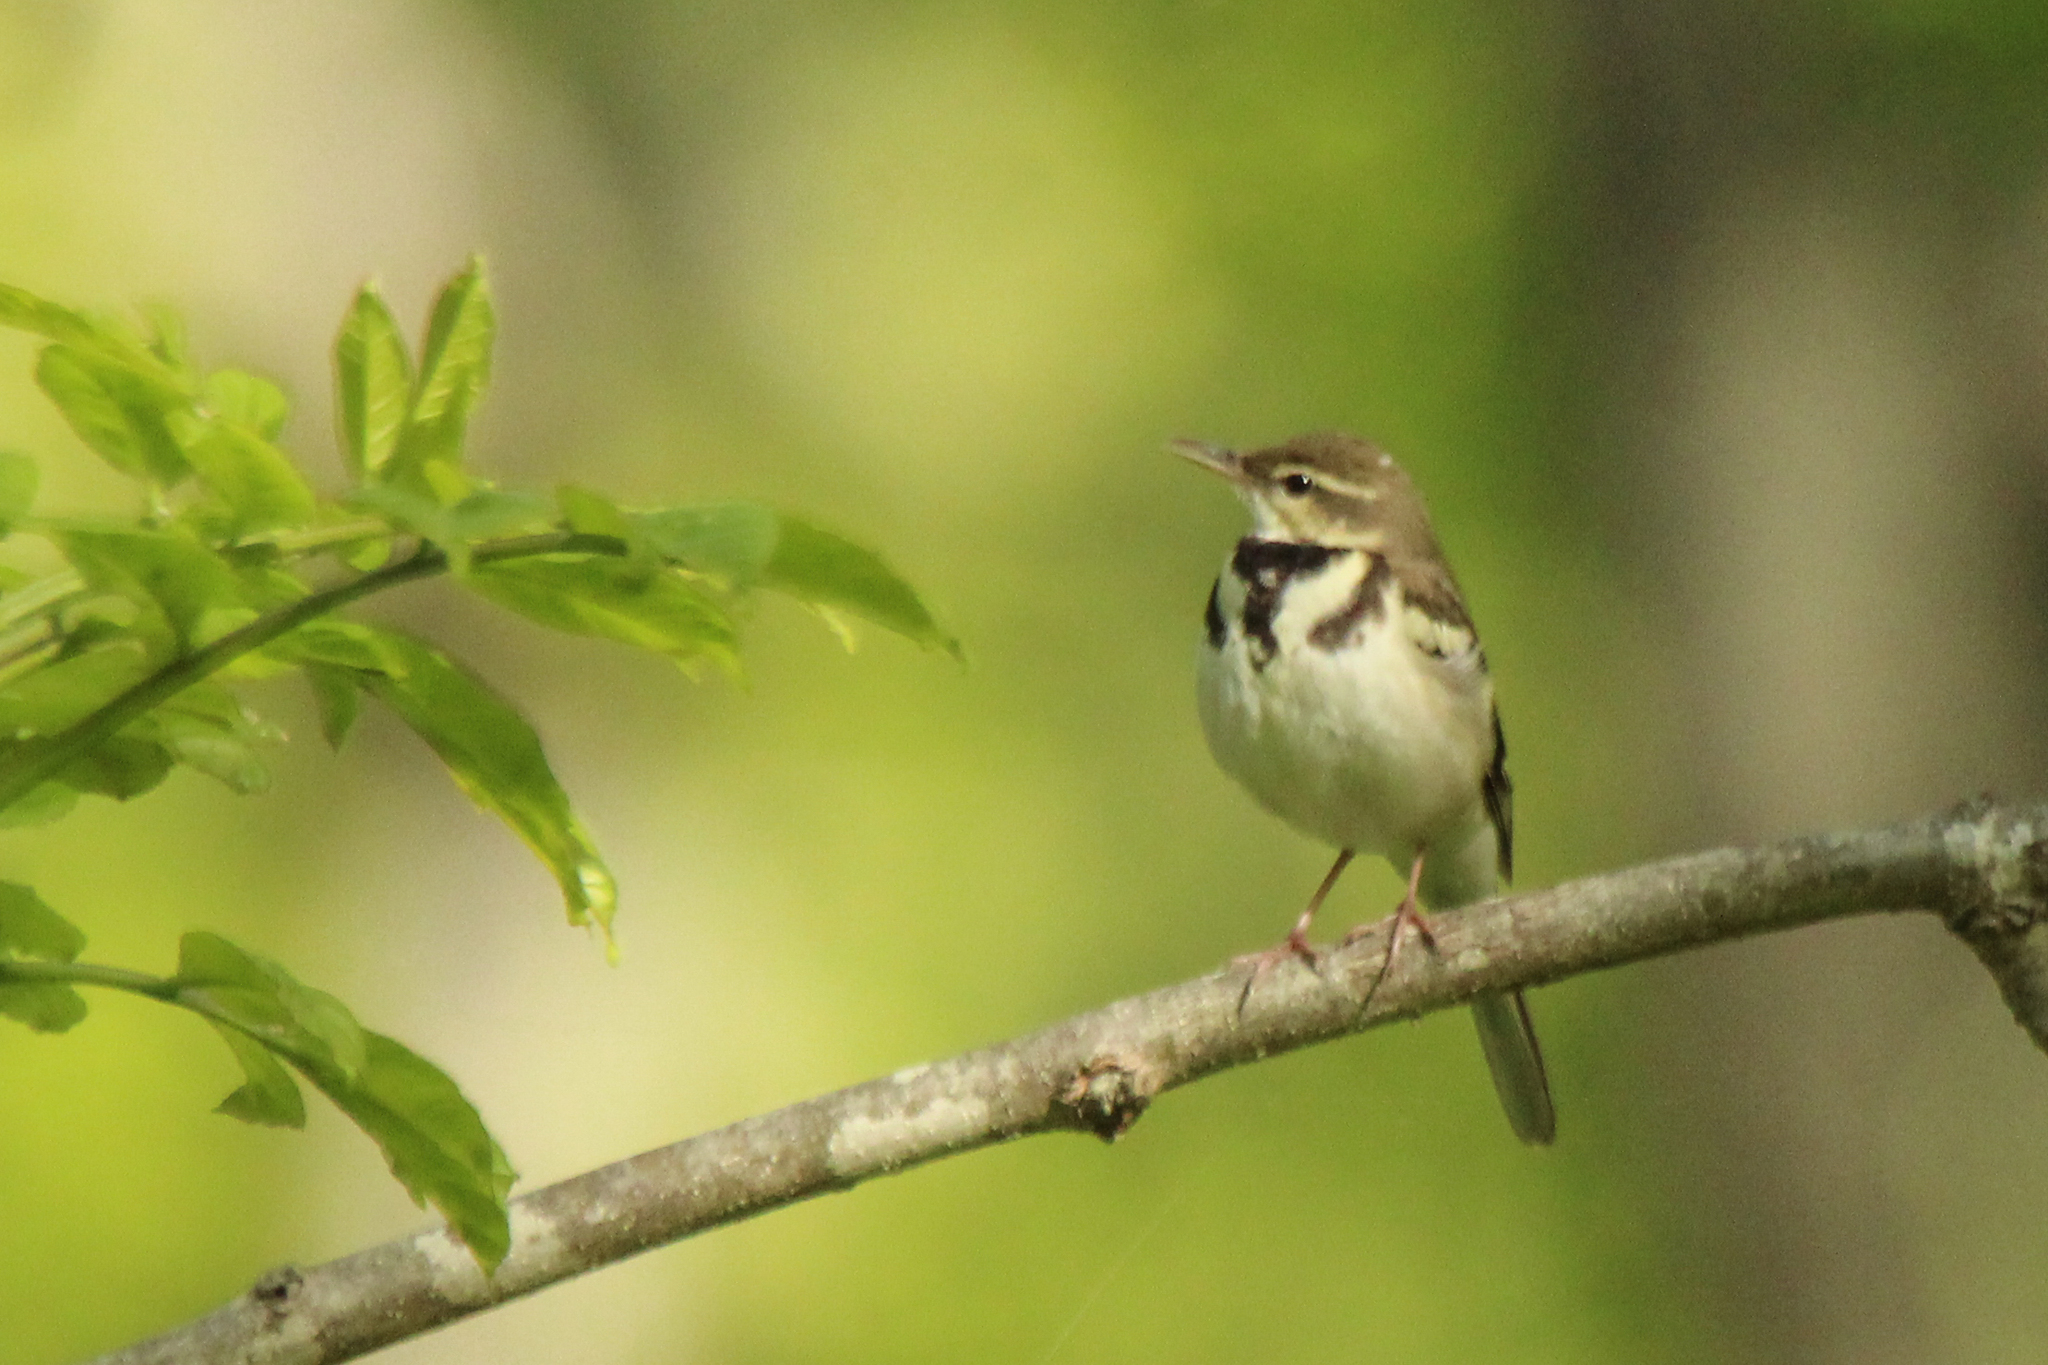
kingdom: Animalia
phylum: Chordata
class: Aves
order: Passeriformes
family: Motacillidae
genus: Dendronanthus
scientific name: Dendronanthus indicus
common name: Forest wagtail
